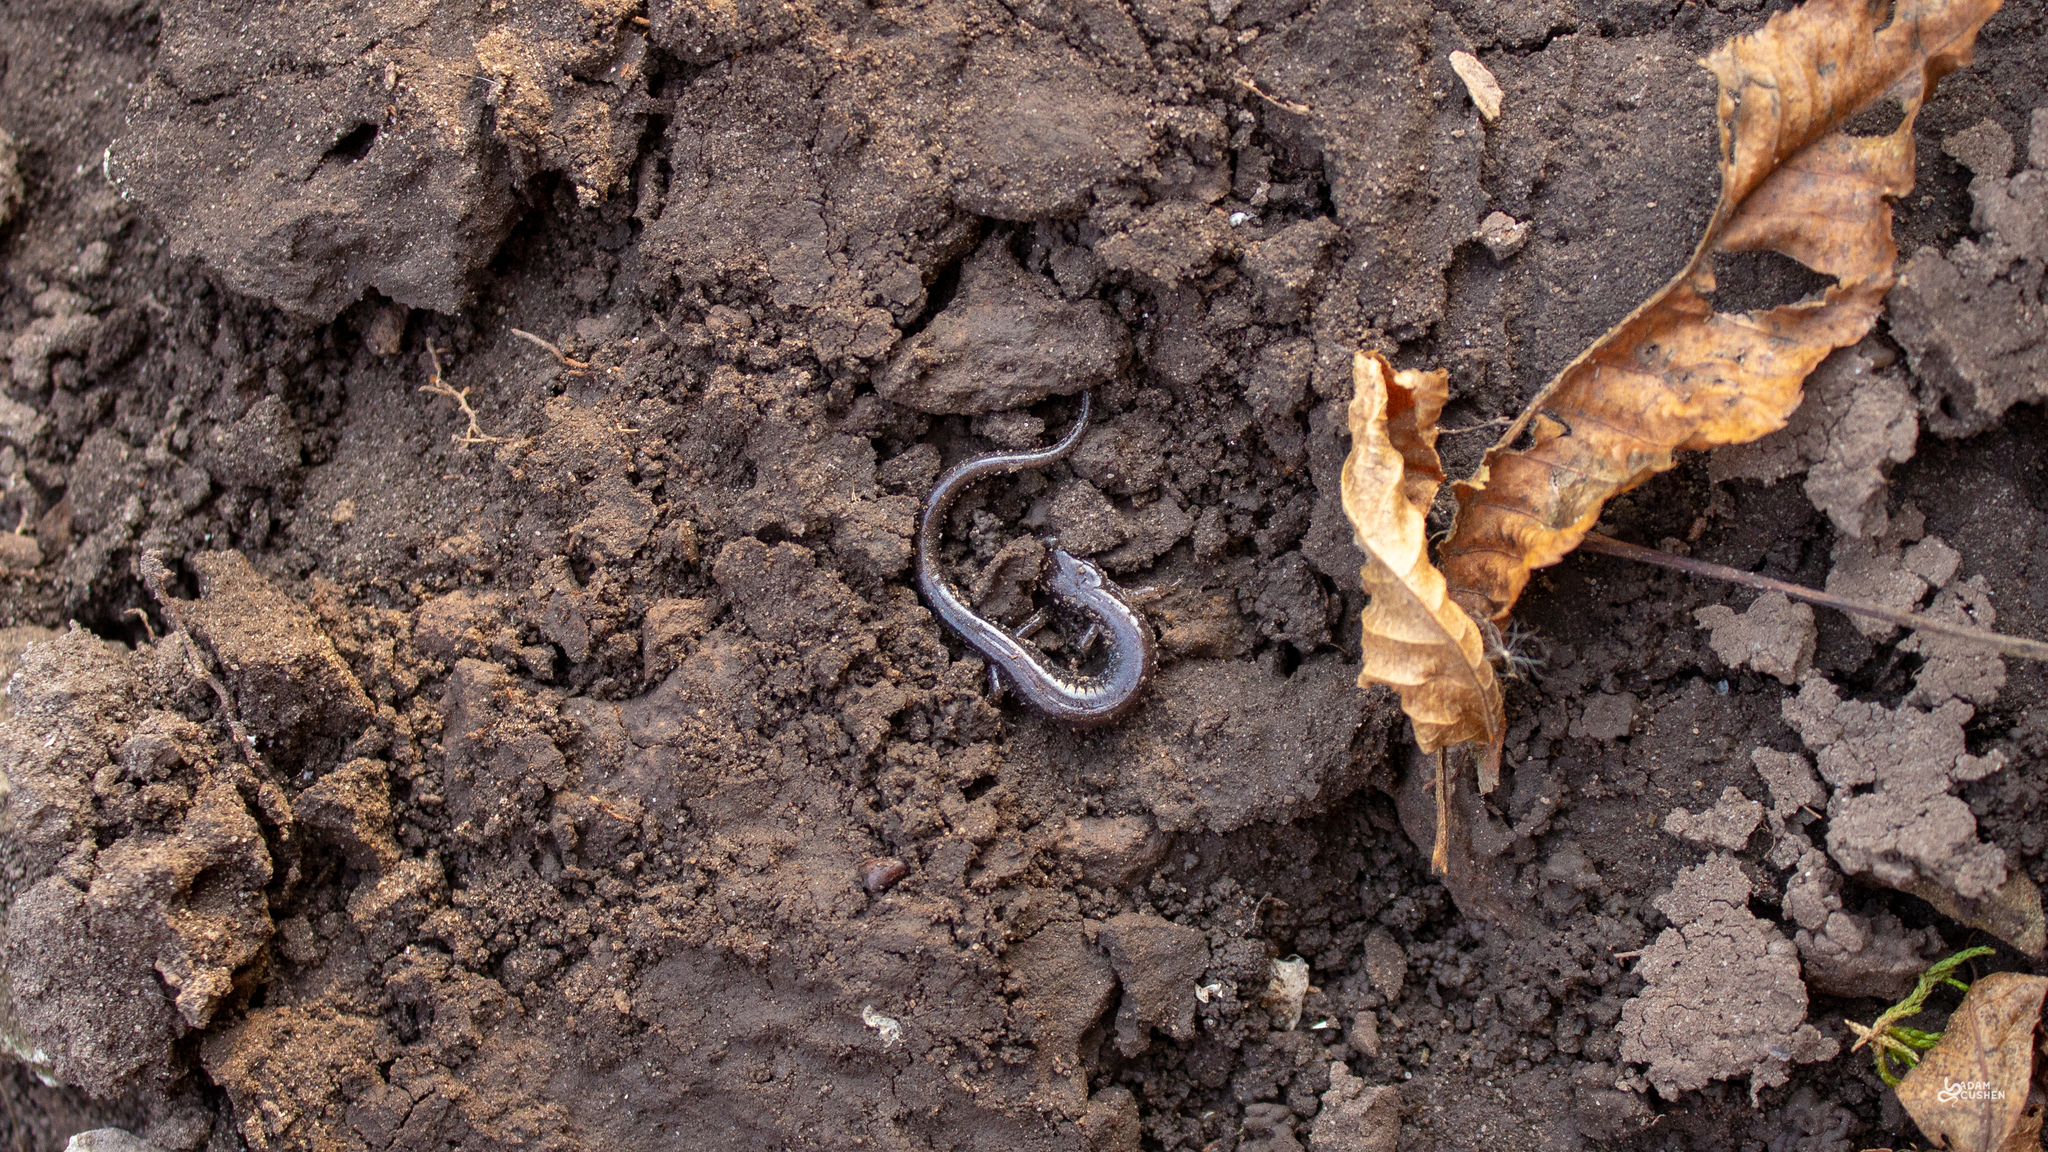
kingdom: Animalia
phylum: Chordata
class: Amphibia
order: Caudata
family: Plethodontidae
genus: Plethodon
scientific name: Plethodon cinereus
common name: Redback salamander
